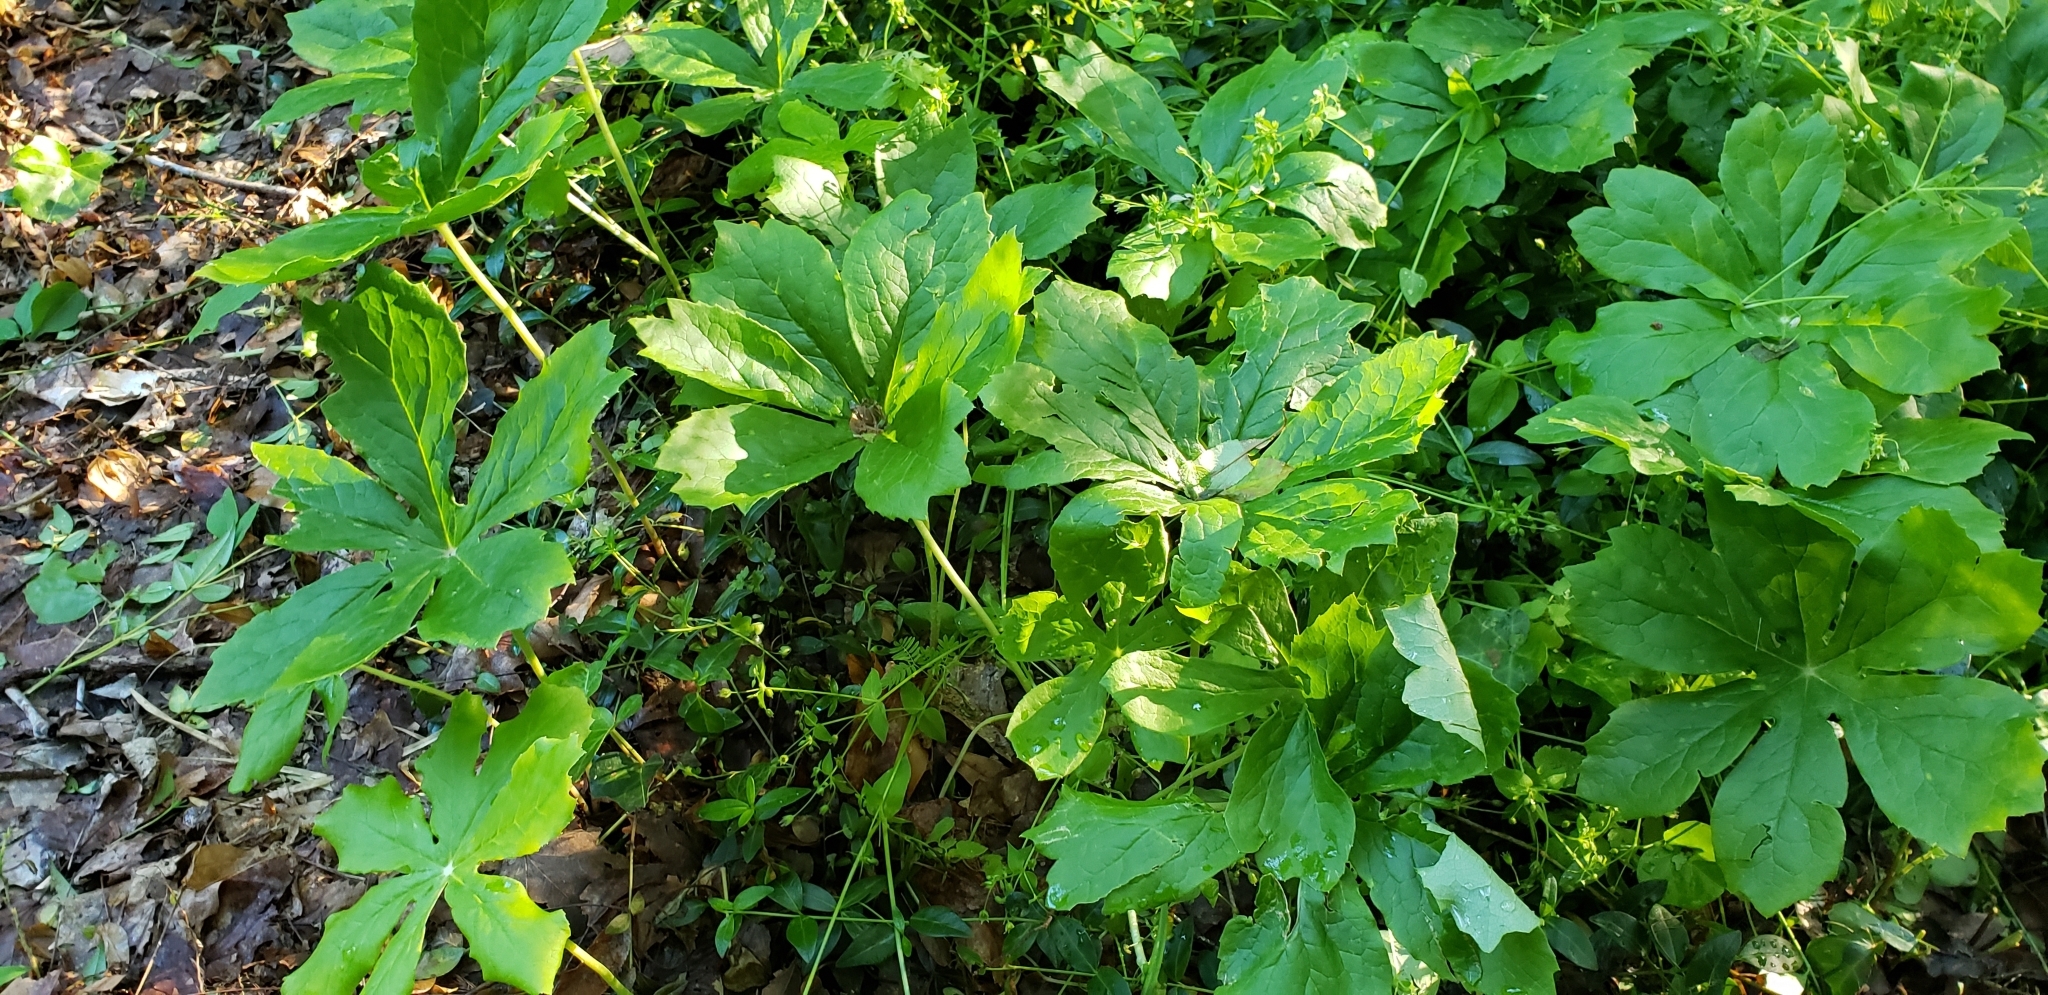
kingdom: Plantae
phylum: Tracheophyta
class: Magnoliopsida
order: Ranunculales
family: Berberidaceae
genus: Podophyllum
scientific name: Podophyllum peltatum
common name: Wild mandrake
